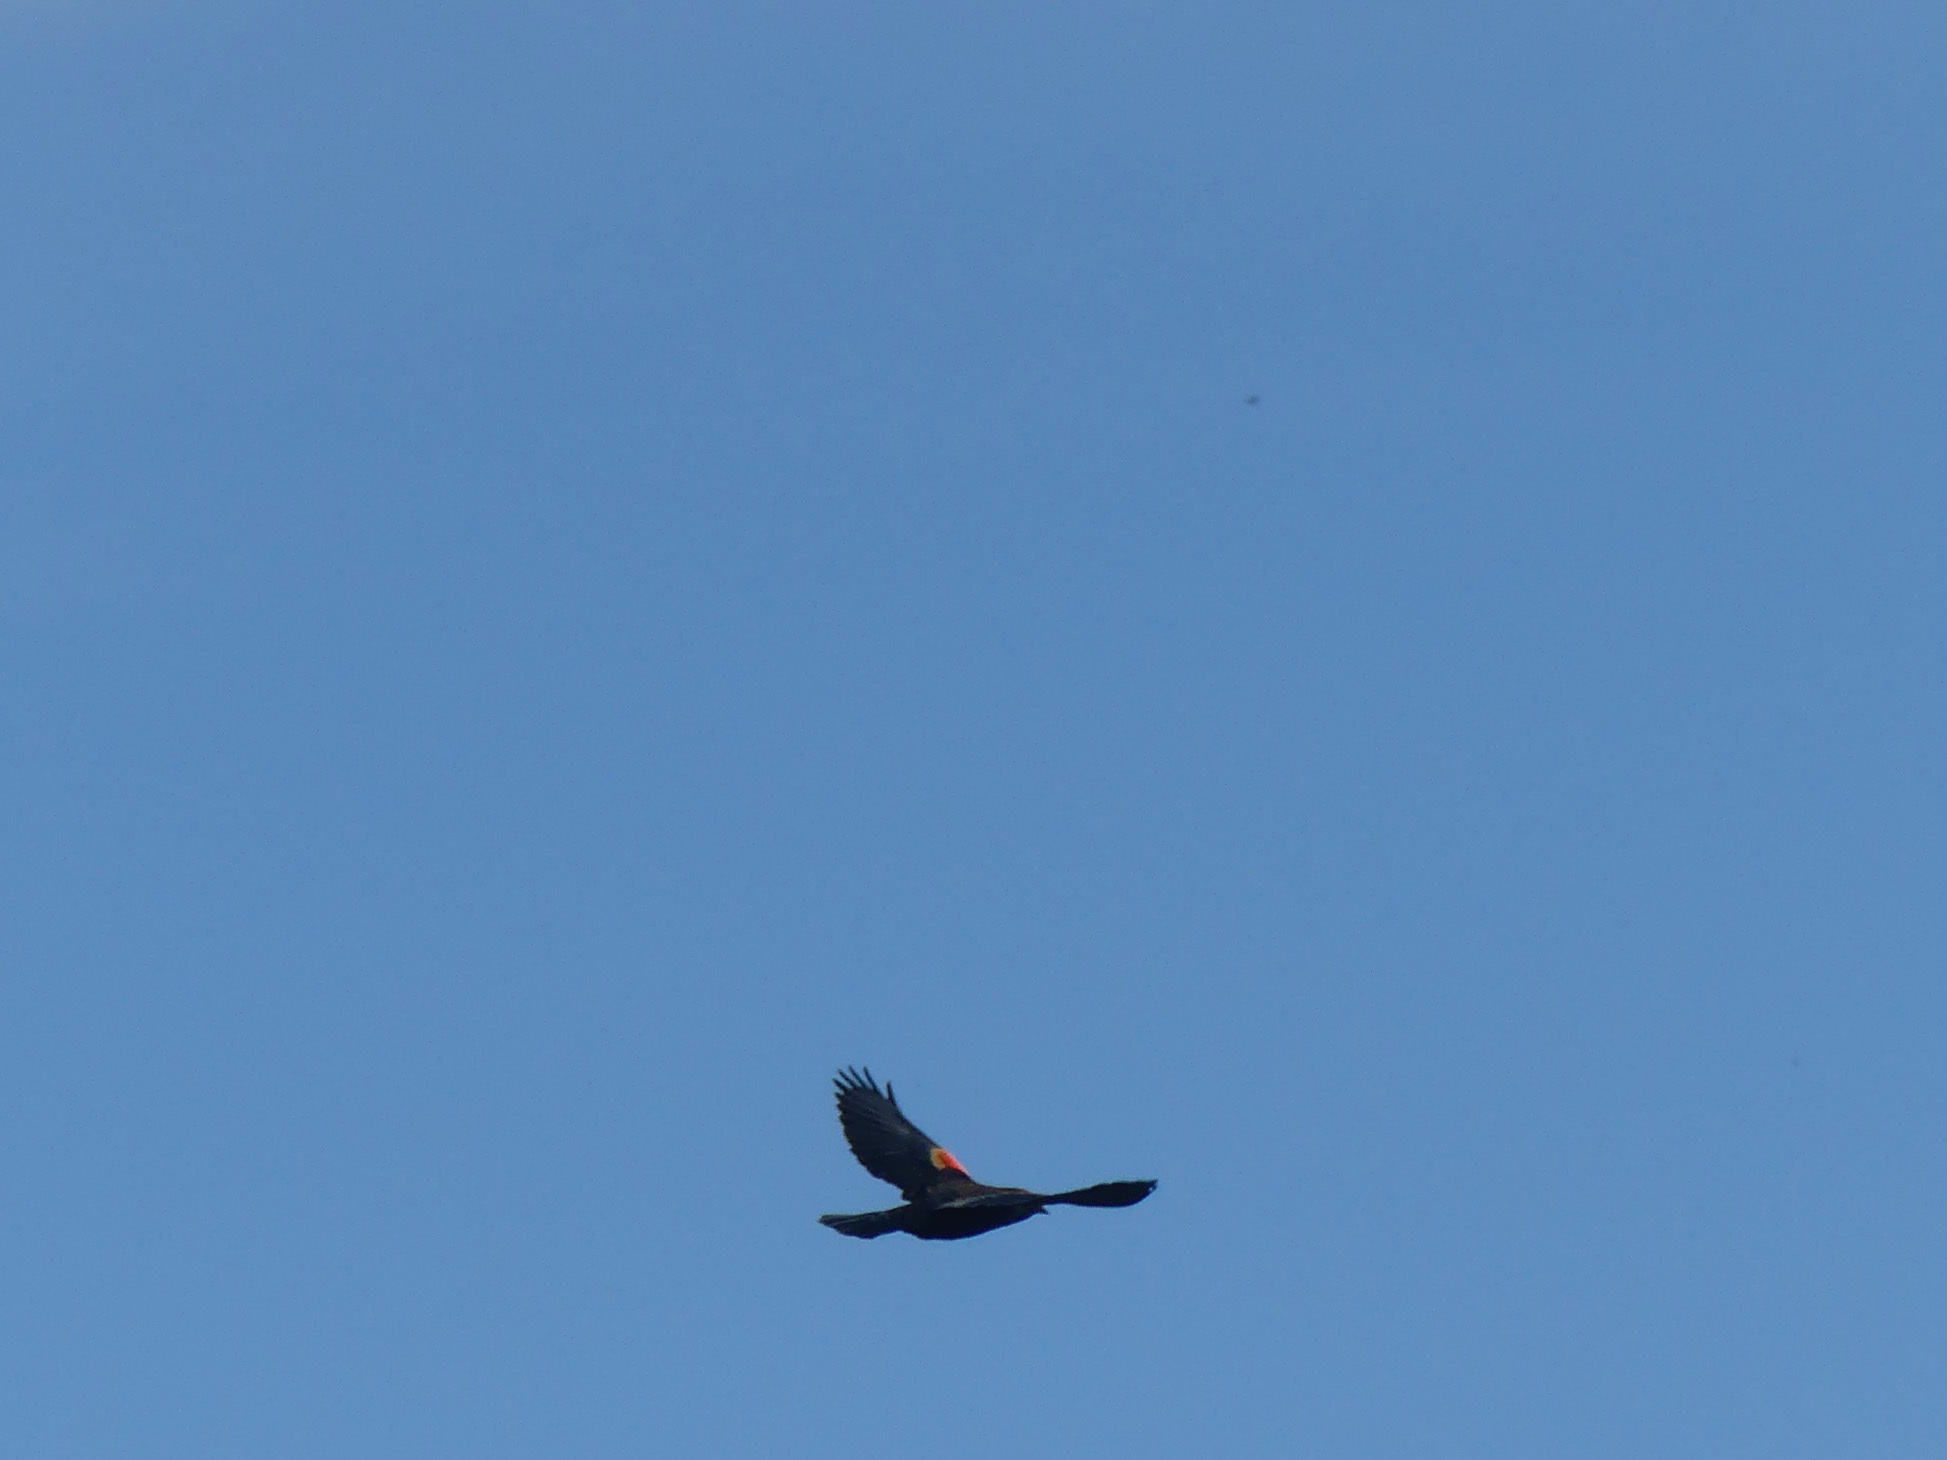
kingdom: Animalia
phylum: Chordata
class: Aves
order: Passeriformes
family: Icteridae
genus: Agelaius
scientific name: Agelaius phoeniceus
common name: Red-winged blackbird
